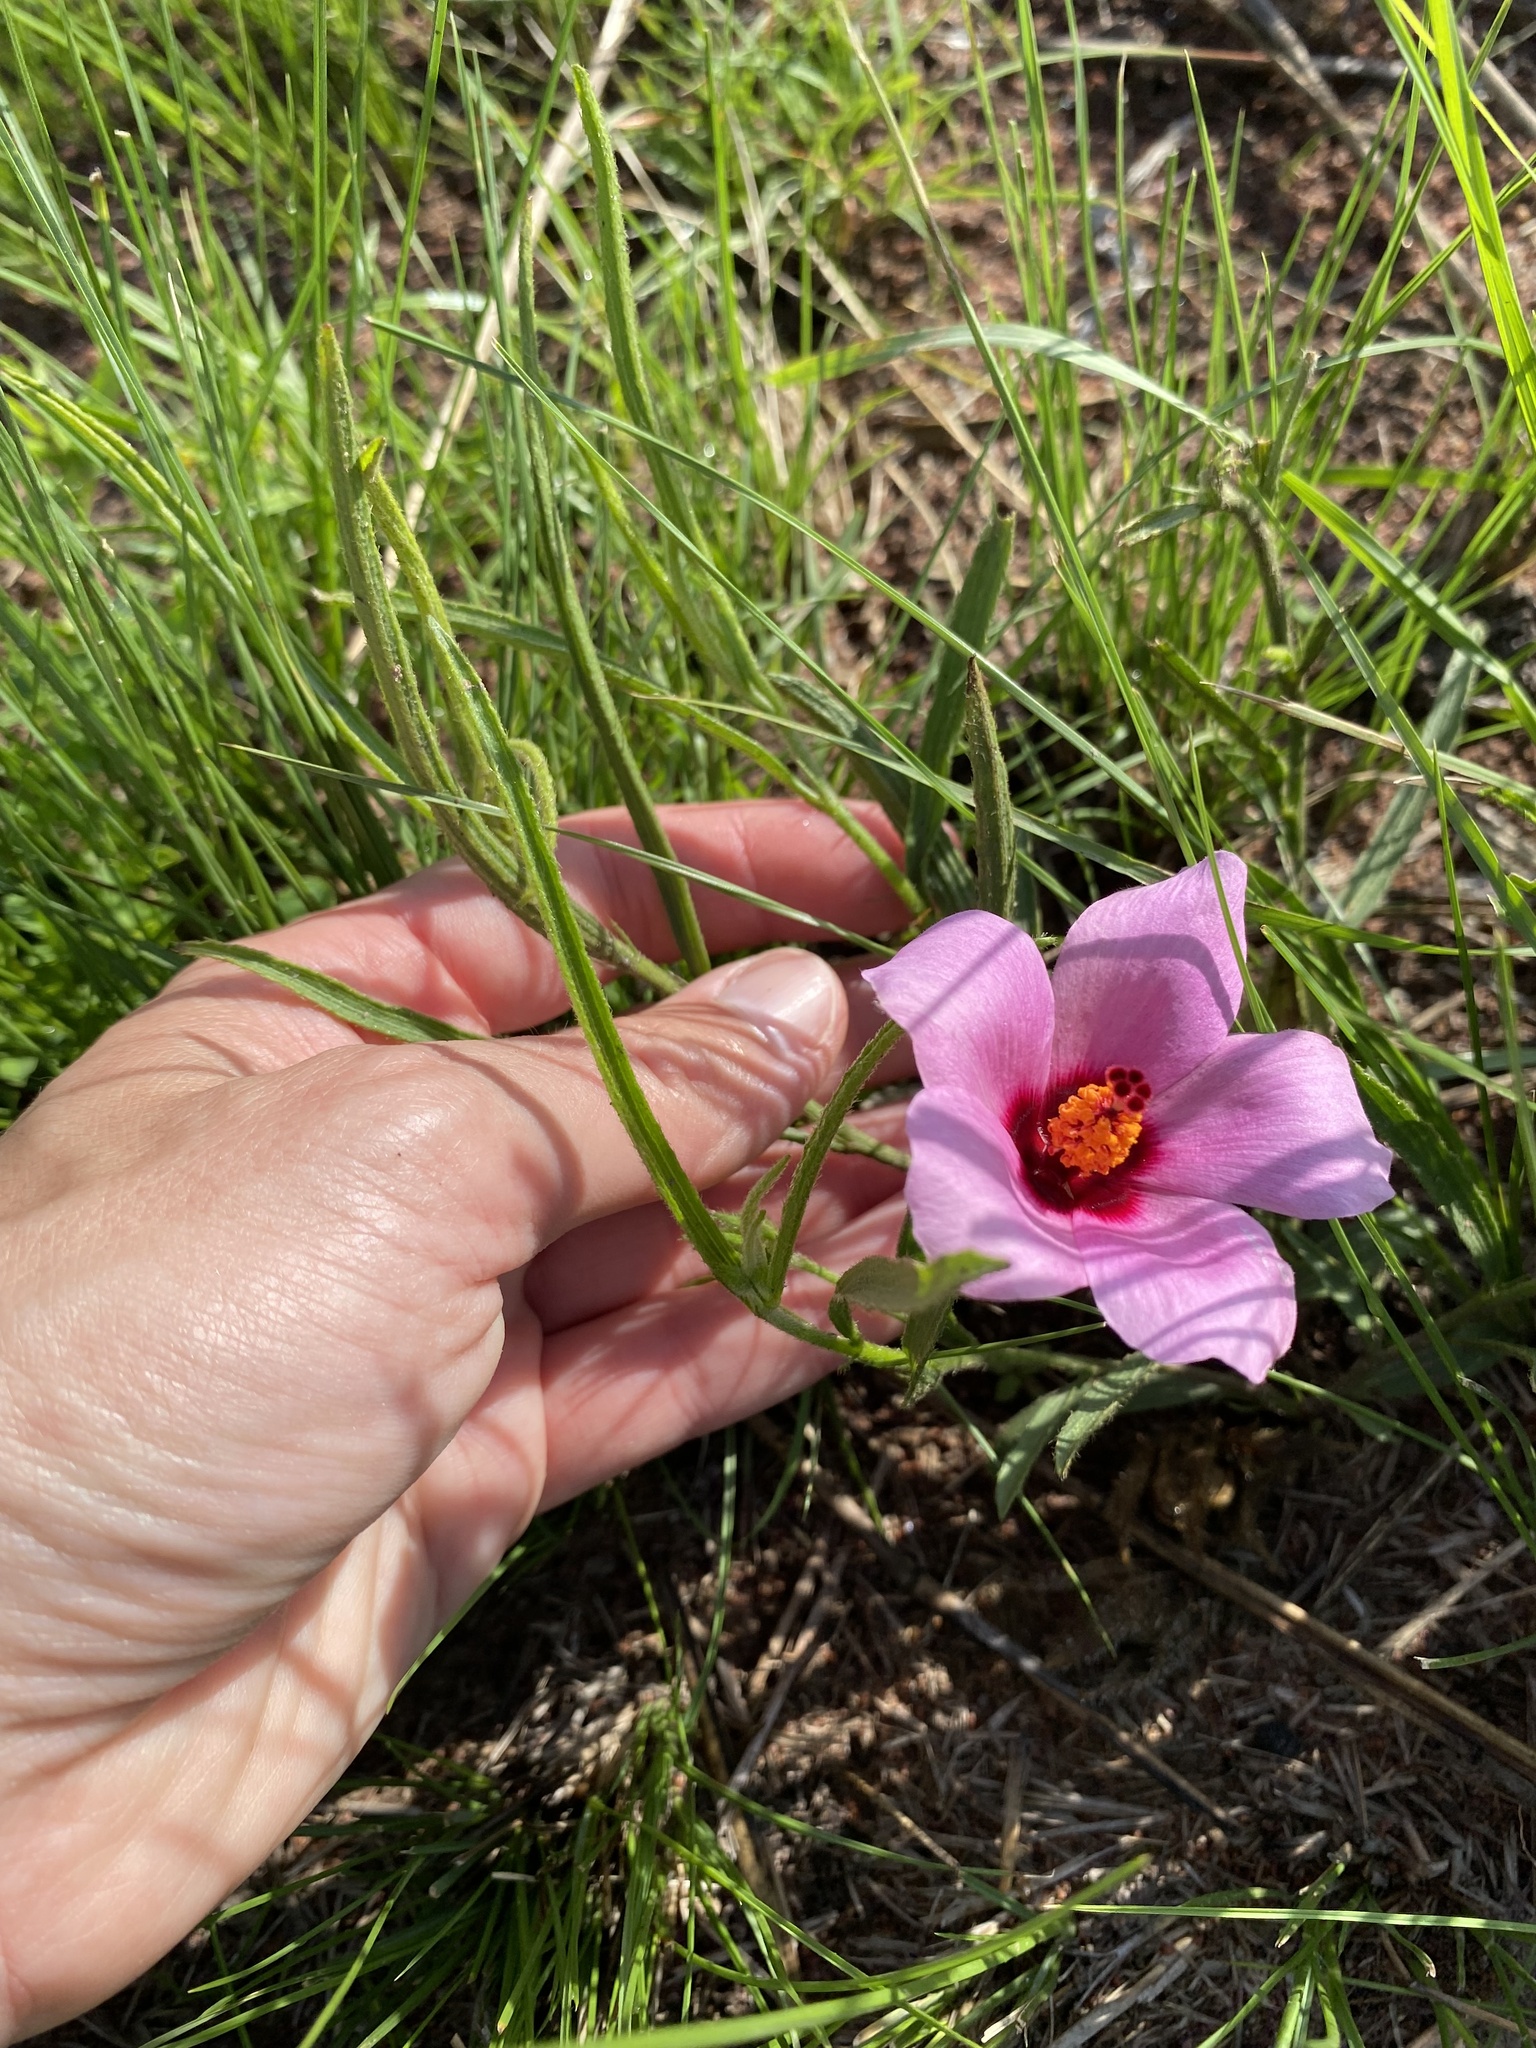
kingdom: Plantae
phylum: Tracheophyta
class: Magnoliopsida
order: Malvales
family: Malvaceae
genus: Hibiscus
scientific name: Hibiscus malacospermus
